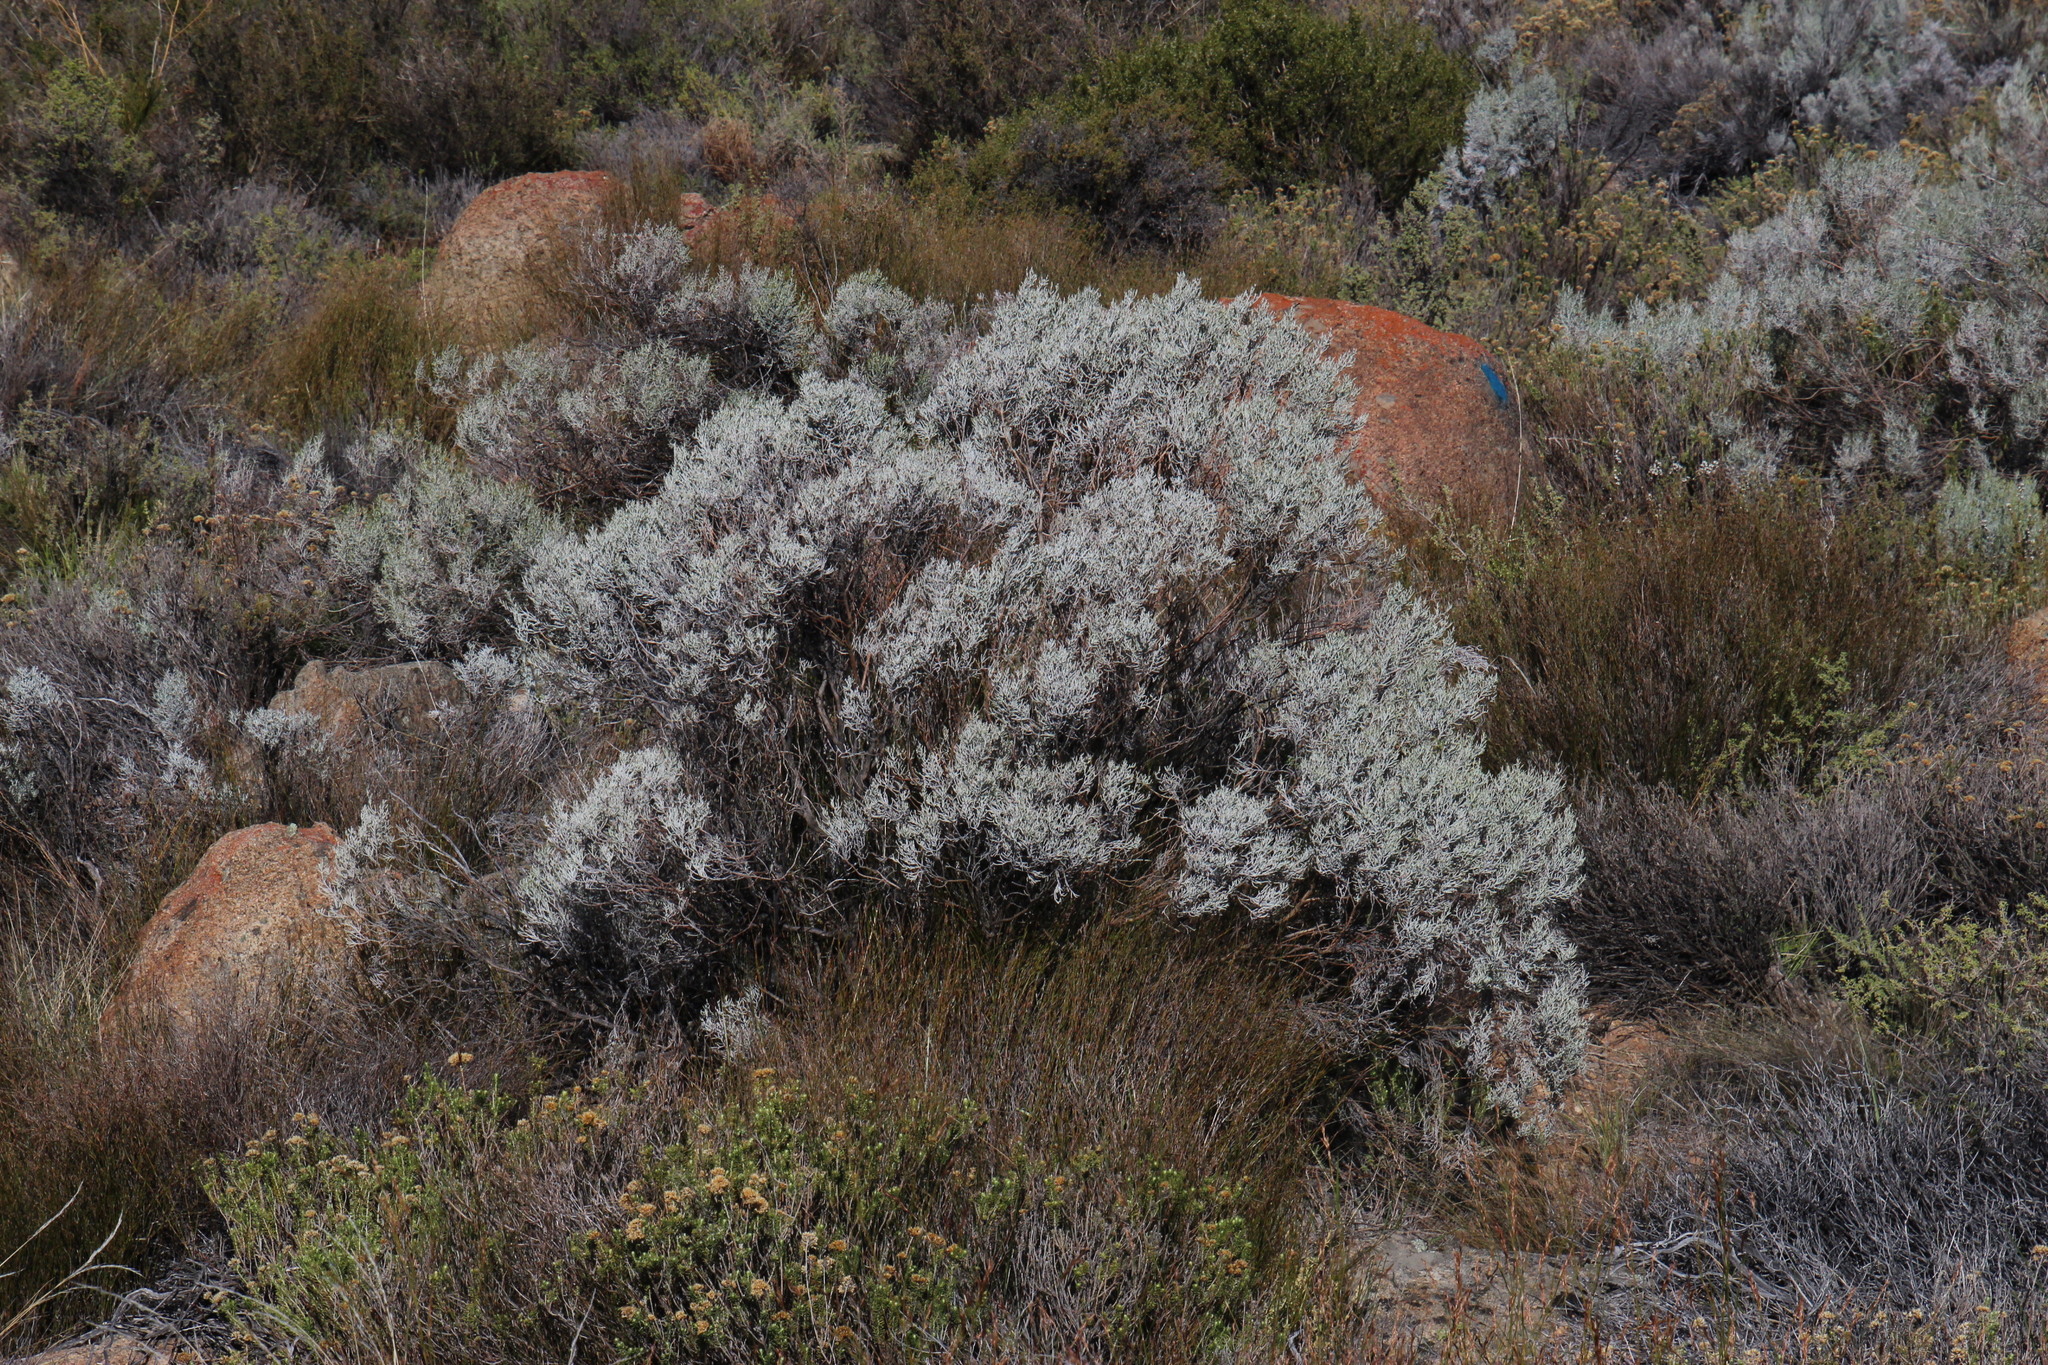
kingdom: Plantae
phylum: Tracheophyta
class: Magnoliopsida
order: Asterales
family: Asteraceae
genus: Dicerothamnus
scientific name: Dicerothamnus rhinocerotis
